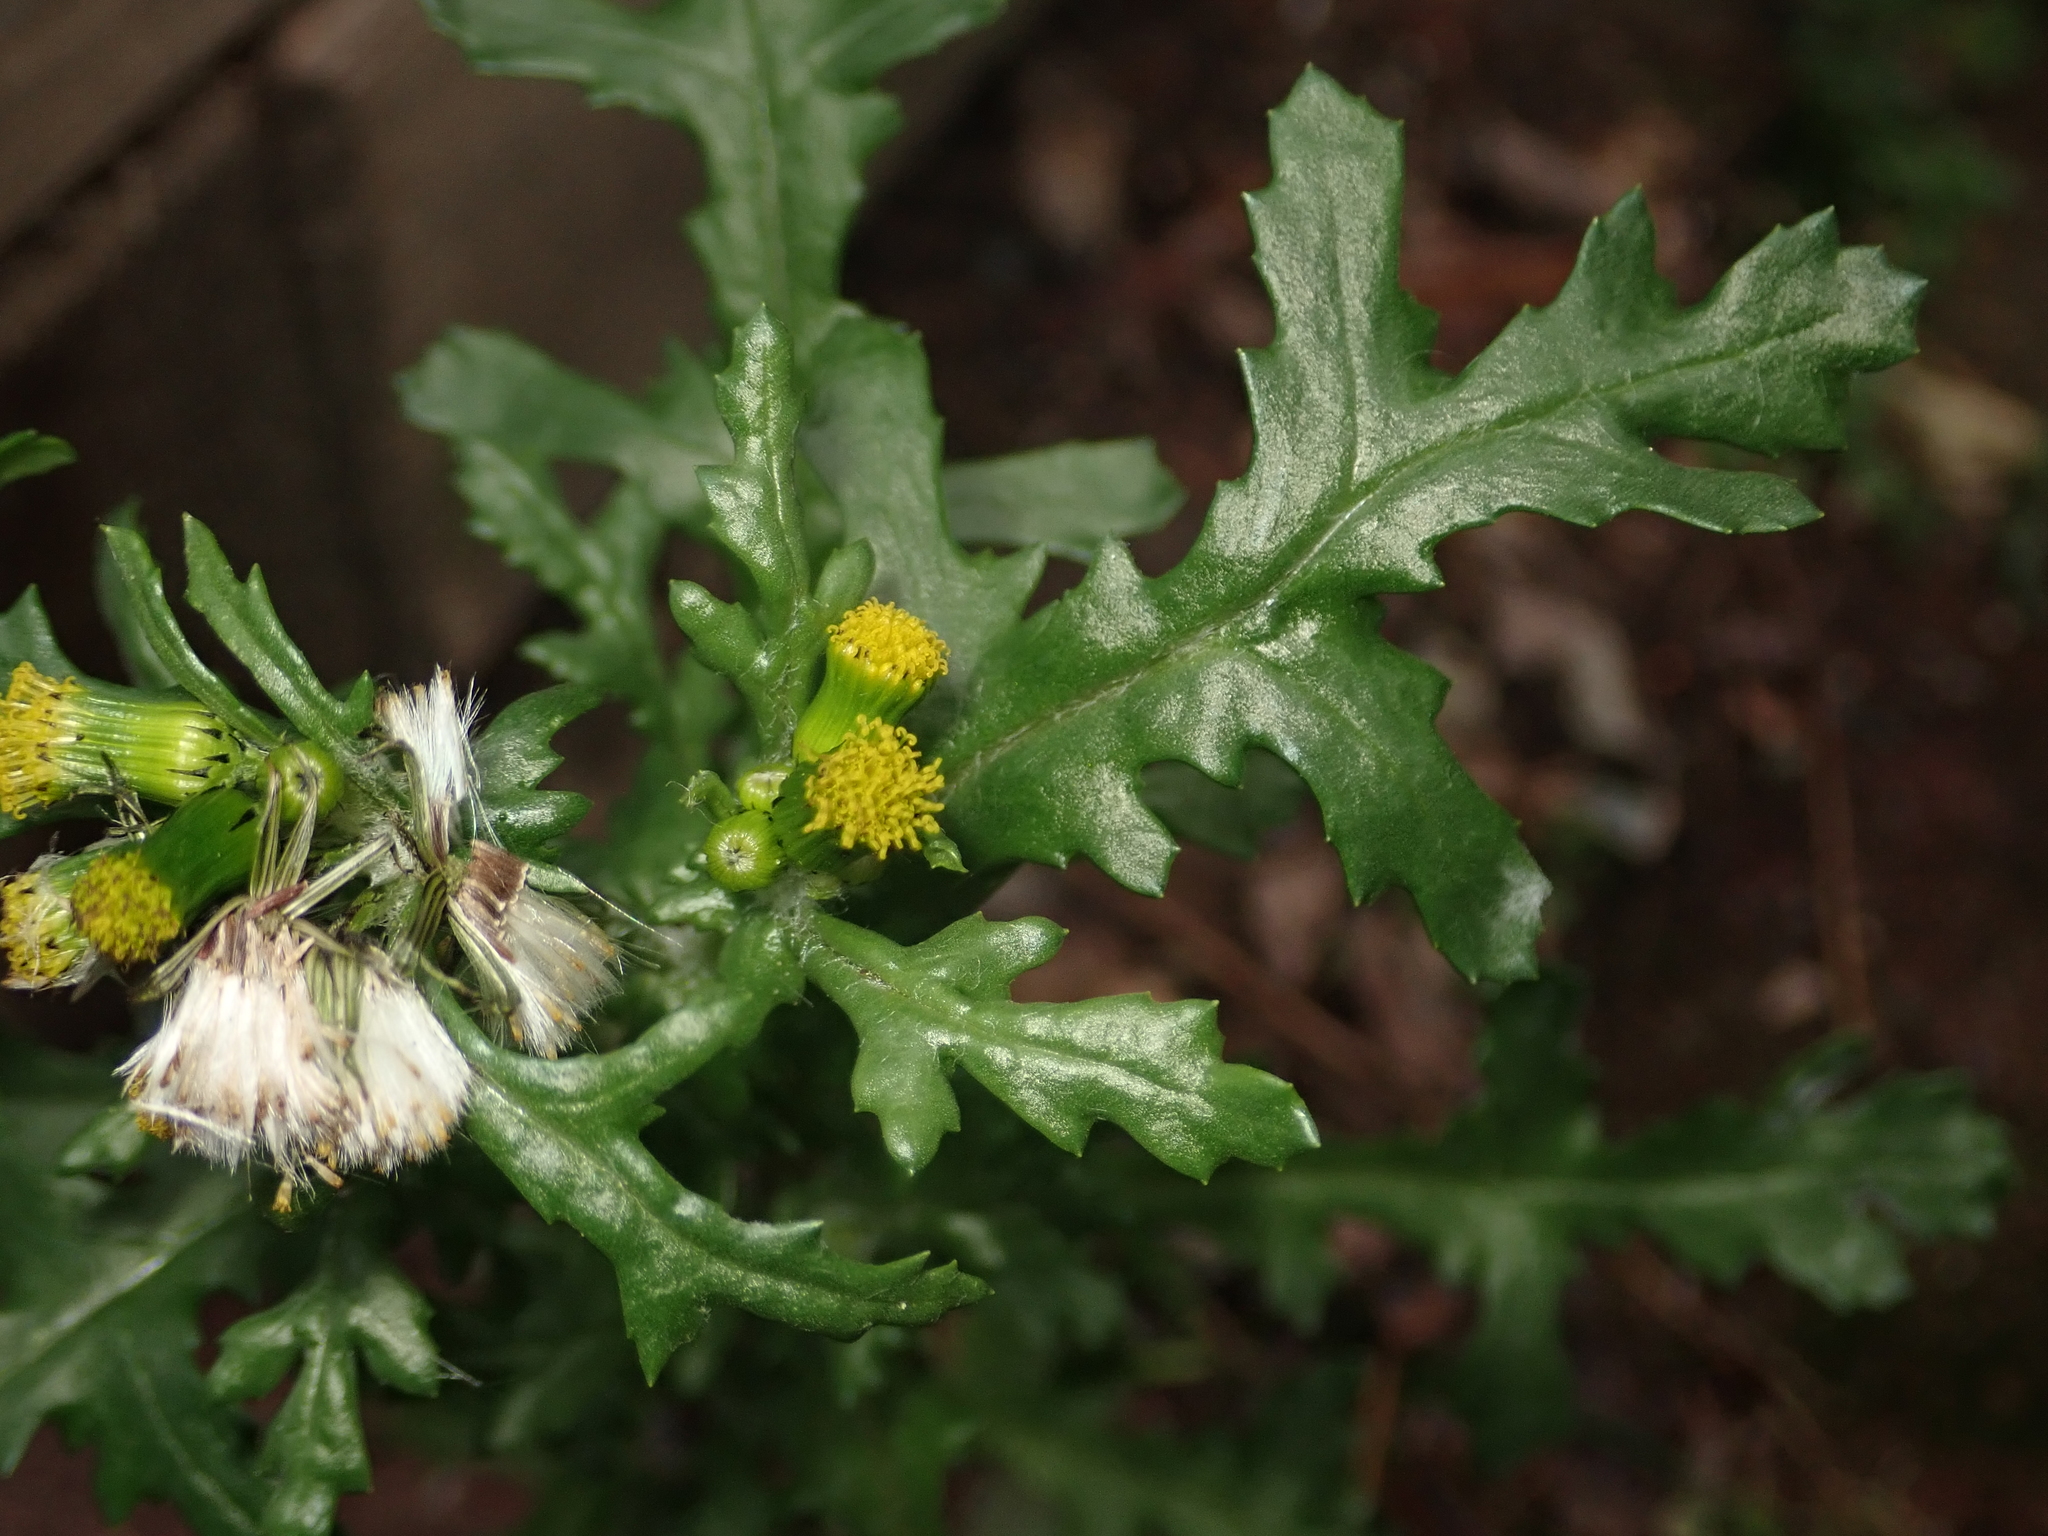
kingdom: Plantae
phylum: Tracheophyta
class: Magnoliopsida
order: Asterales
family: Asteraceae
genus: Senecio
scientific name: Senecio vulgaris
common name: Old-man-in-the-spring
